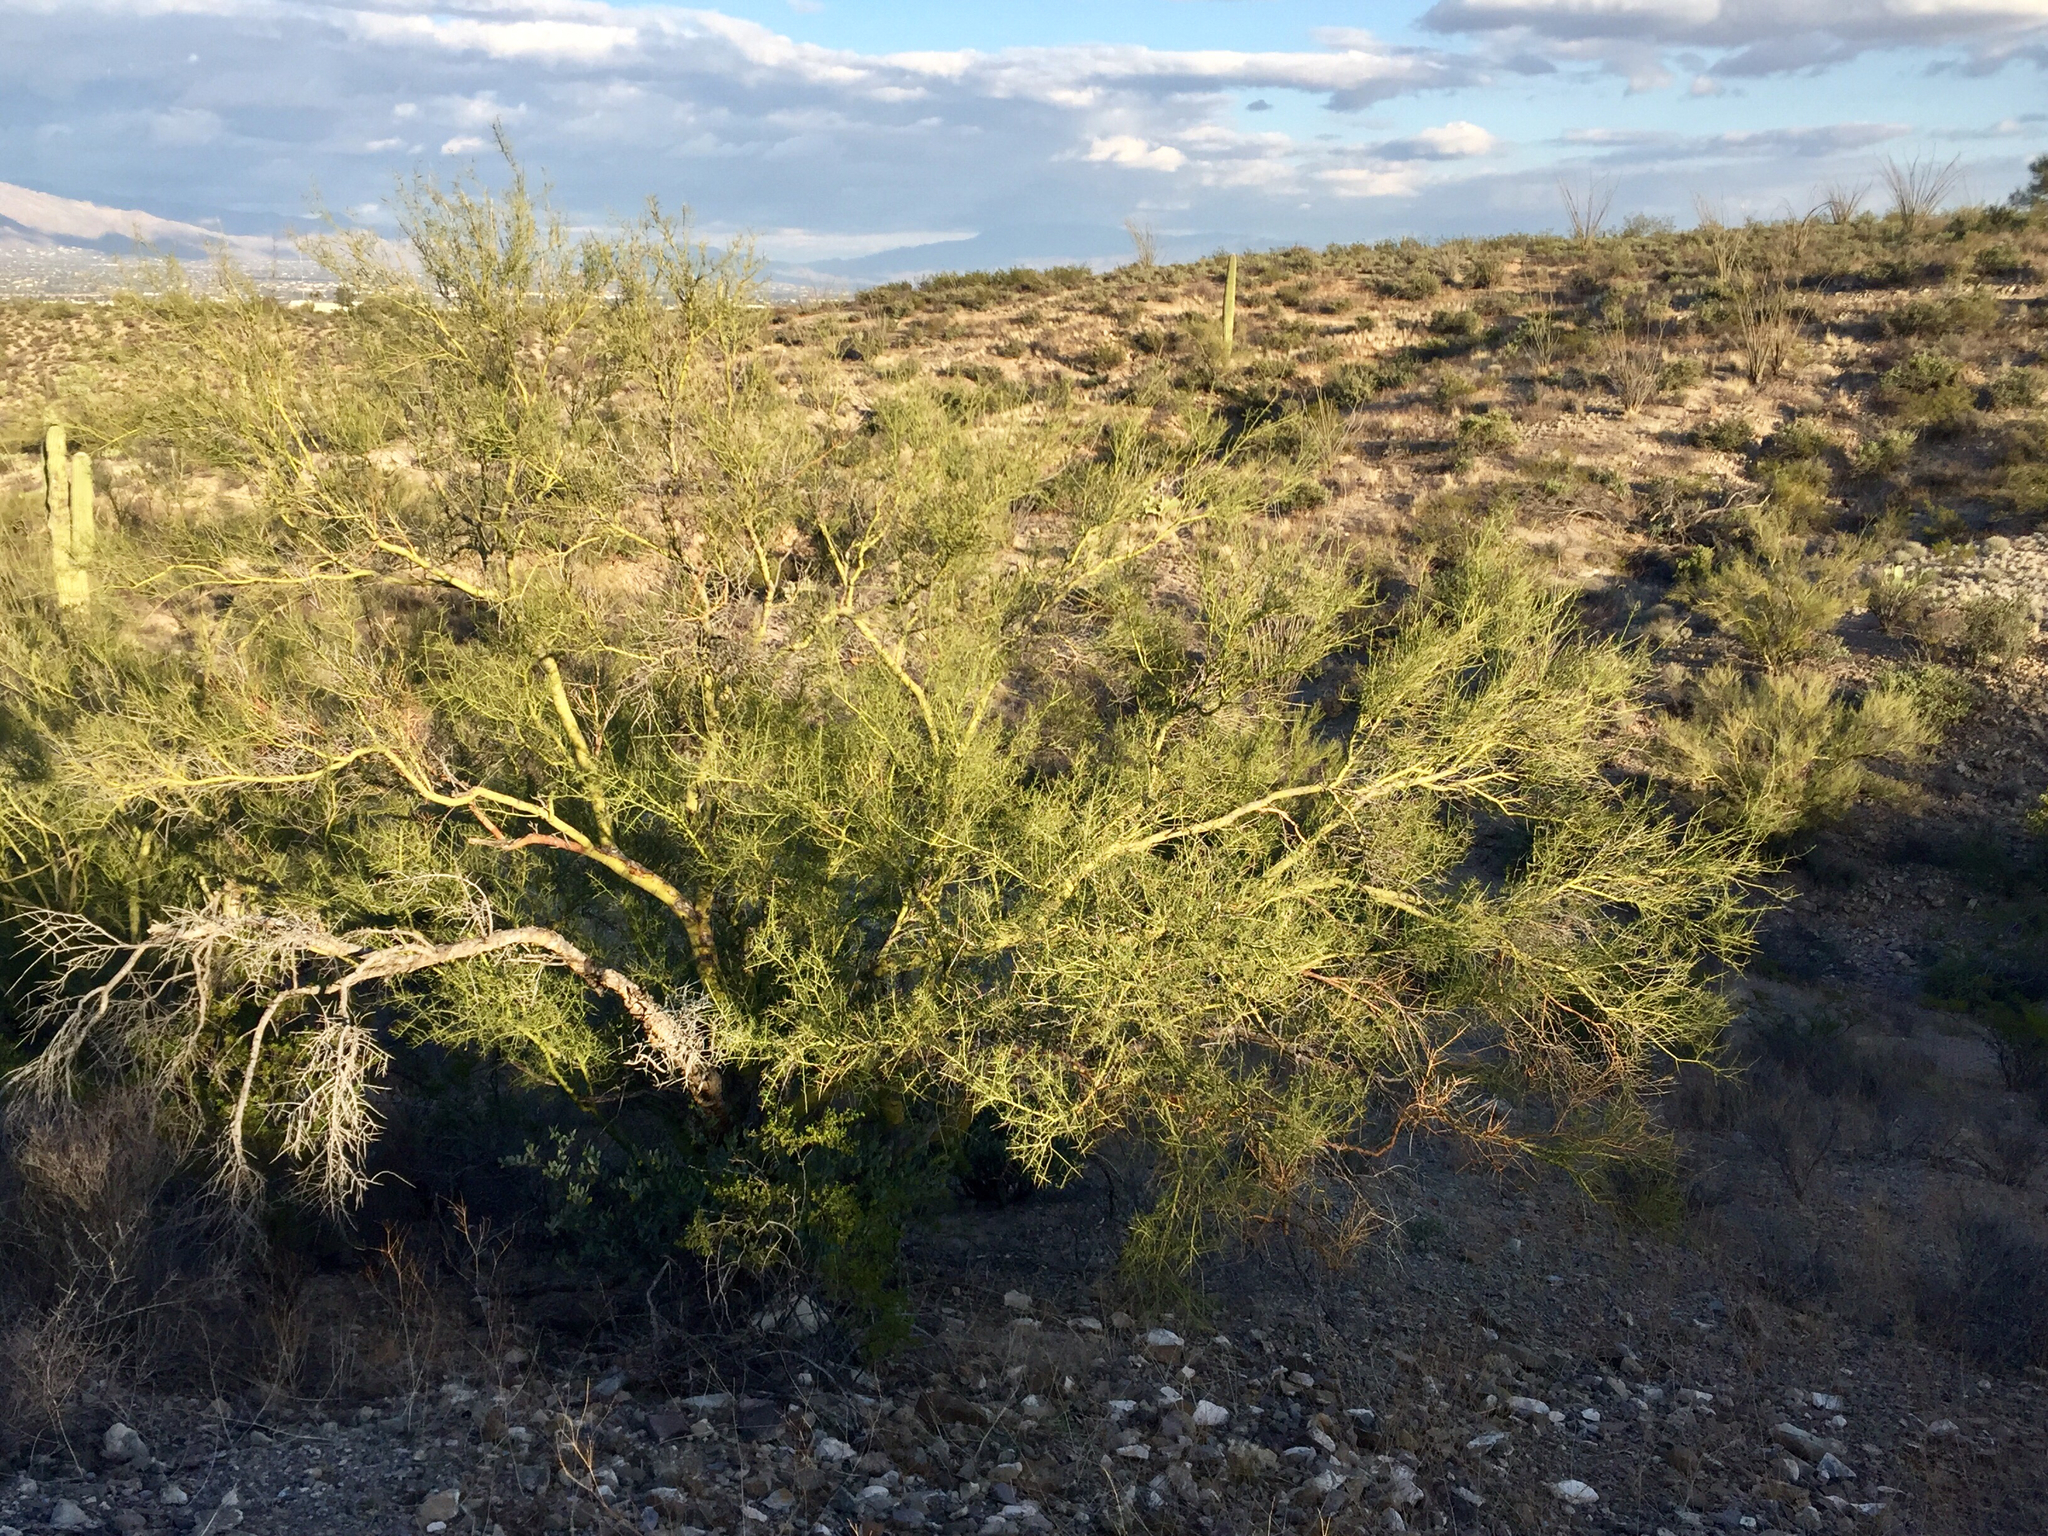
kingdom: Plantae
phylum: Tracheophyta
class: Magnoliopsida
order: Fabales
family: Fabaceae
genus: Parkinsonia
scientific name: Parkinsonia microphylla
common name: Yellow paloverde
